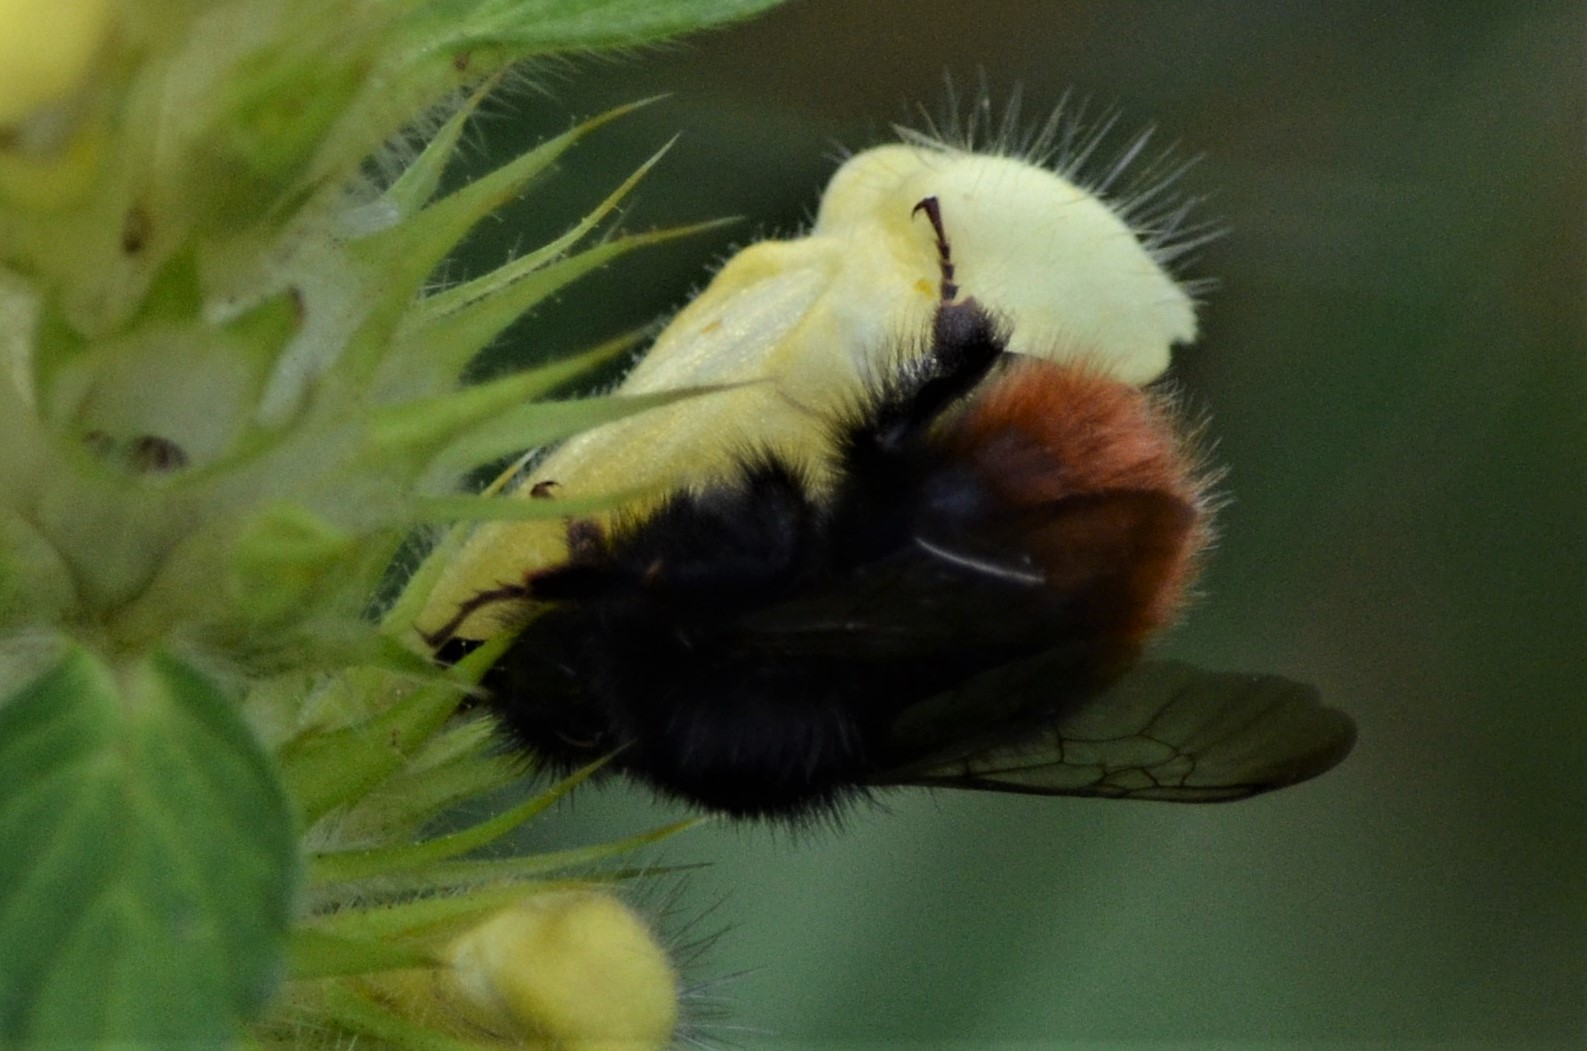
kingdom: Animalia
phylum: Arthropoda
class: Insecta
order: Hymenoptera
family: Apidae
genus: Bombus
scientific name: Bombus wurflenii
